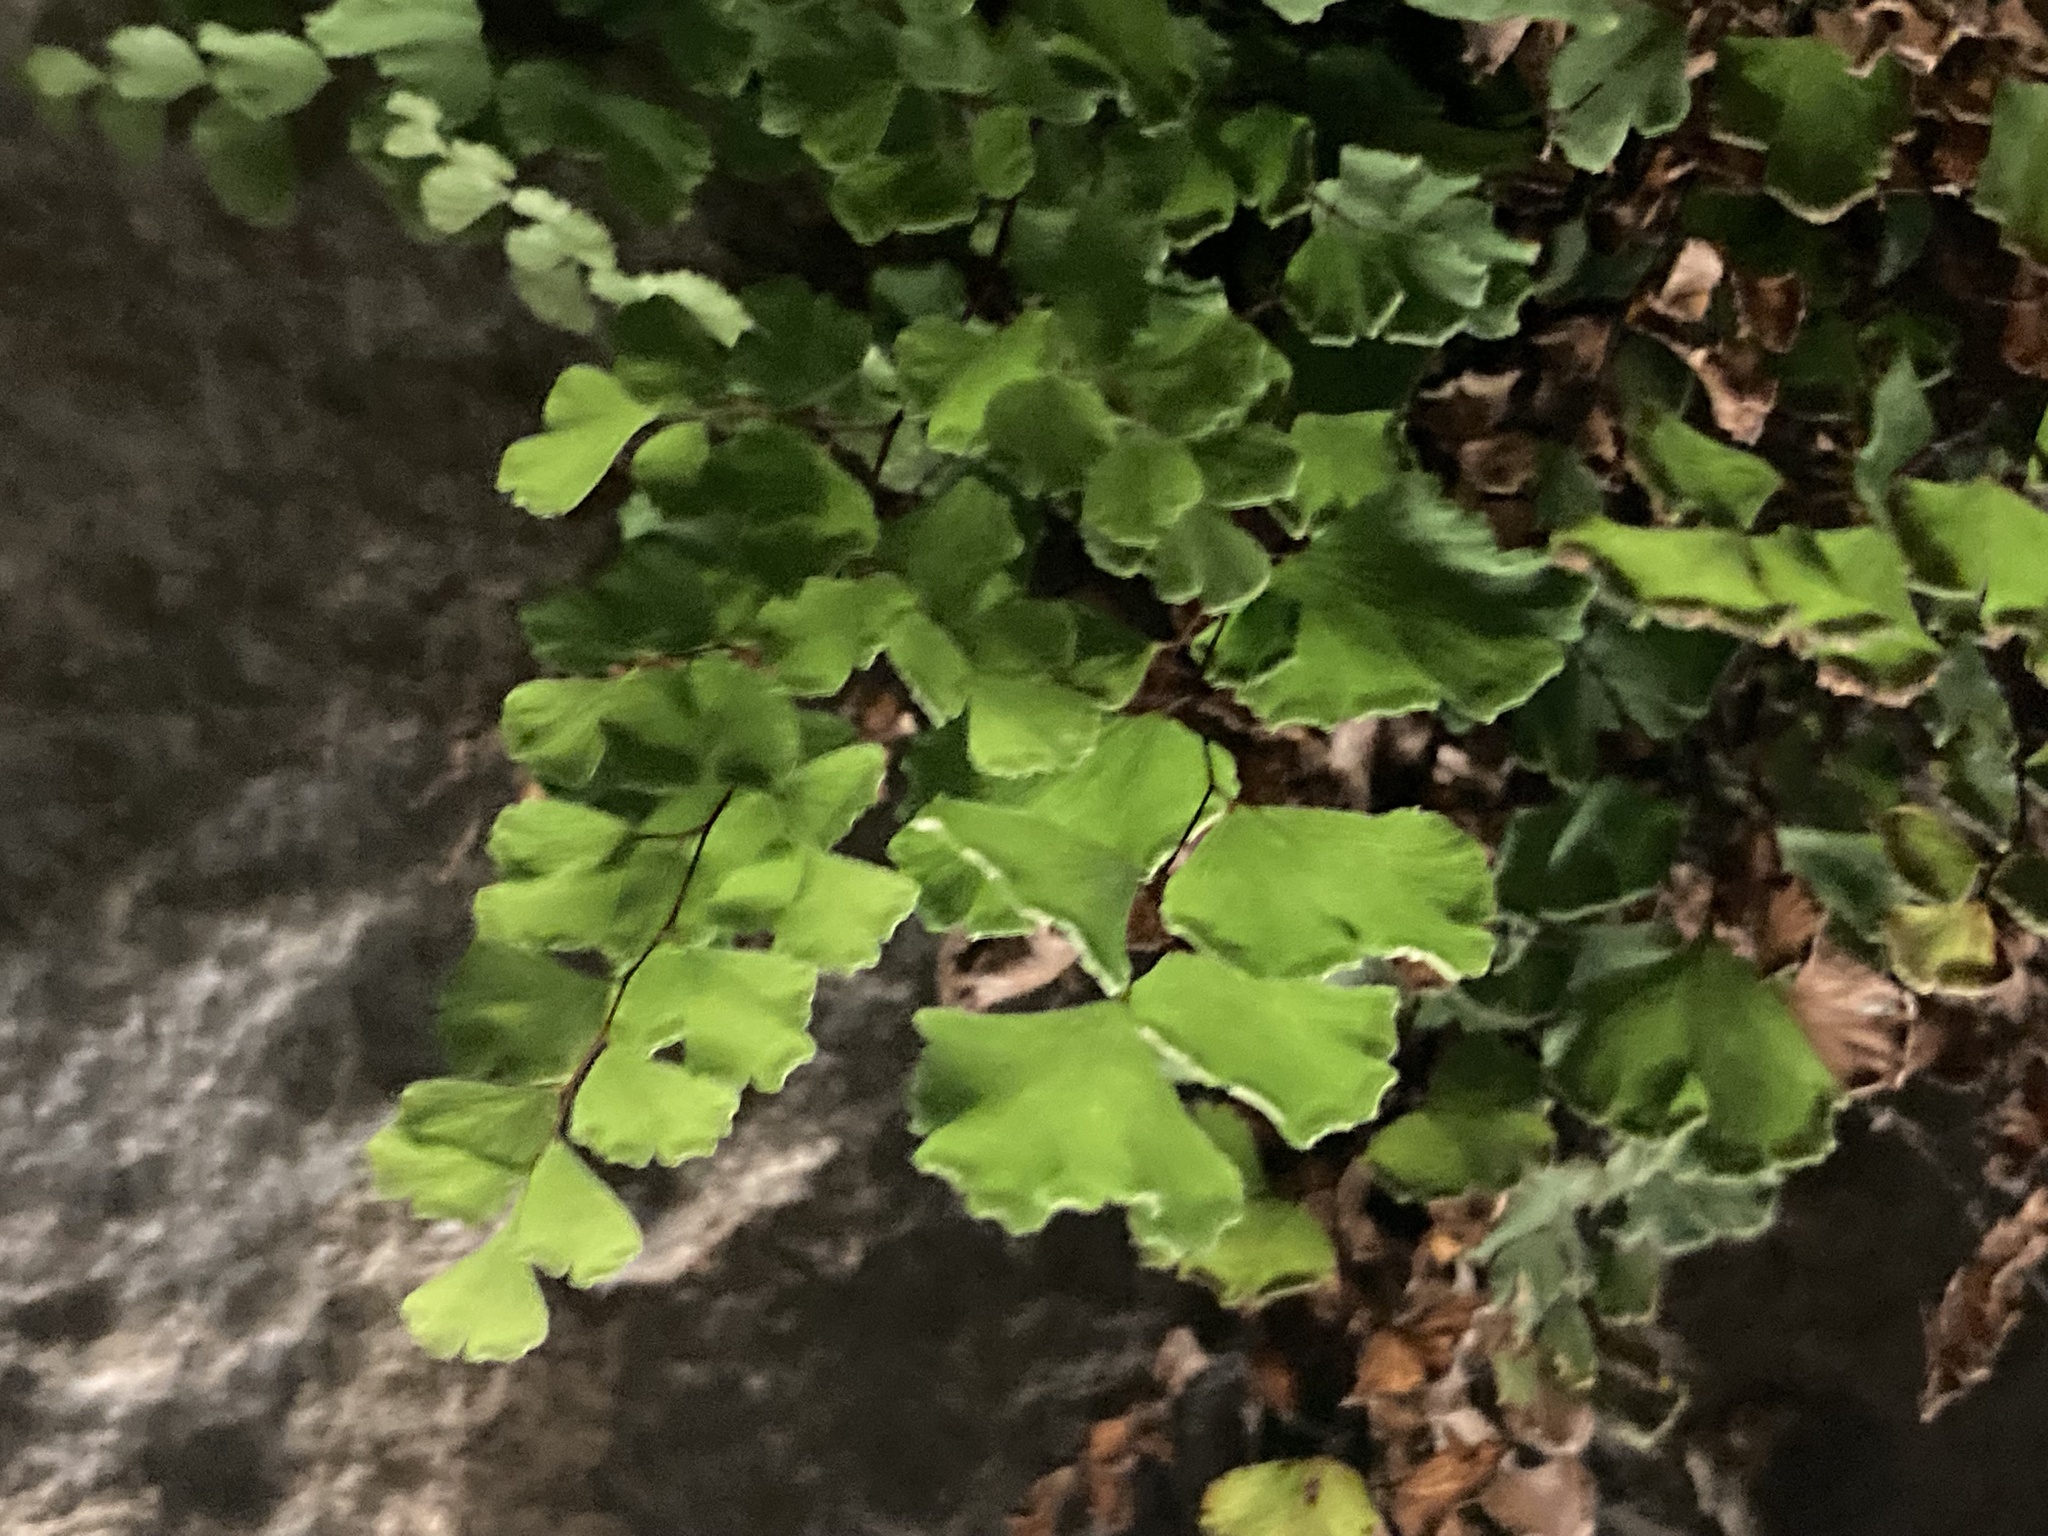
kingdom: Plantae
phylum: Tracheophyta
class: Polypodiopsida
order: Polypodiales
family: Pteridaceae
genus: Adiantum
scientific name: Adiantum capillus-veneris
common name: Maidenhair fern
